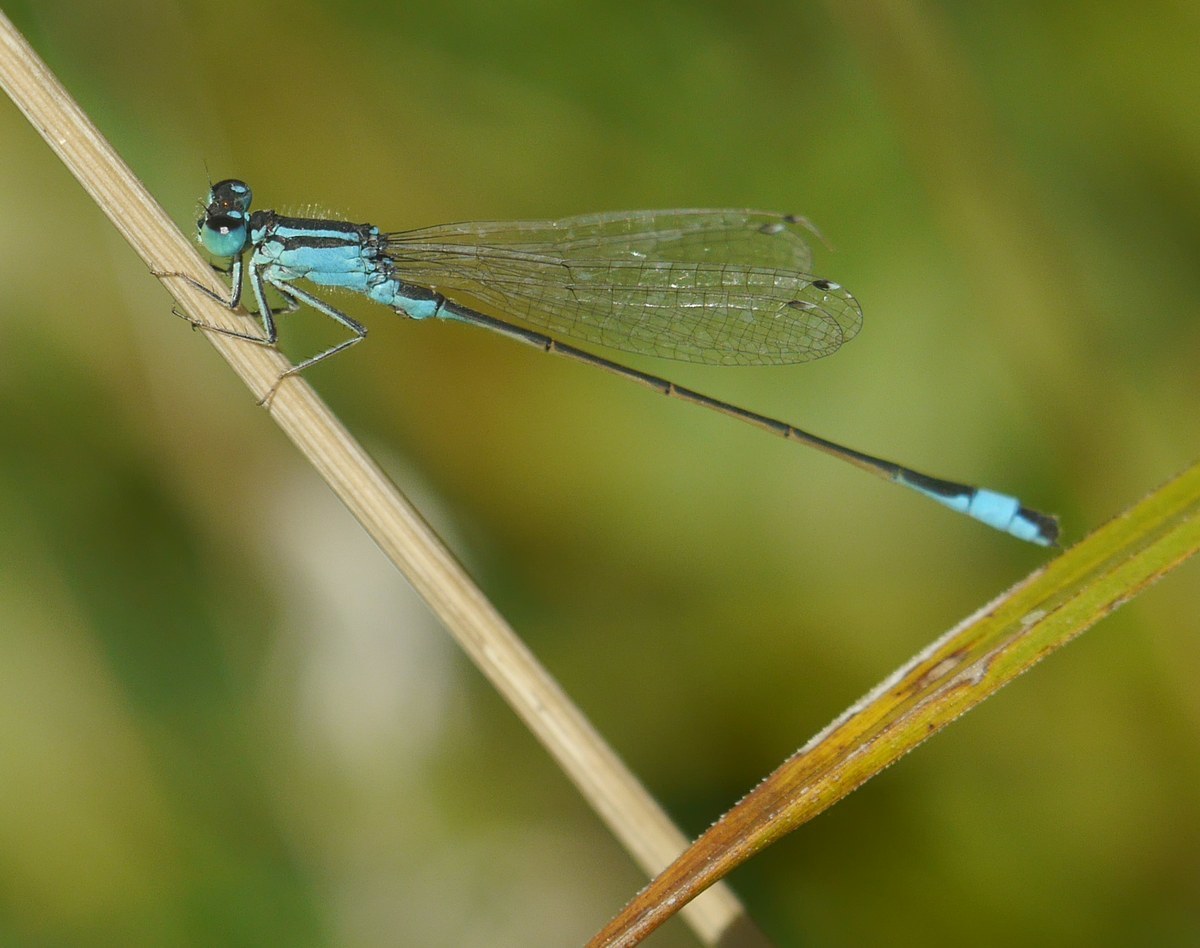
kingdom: Animalia
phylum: Arthropoda
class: Insecta
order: Odonata
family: Coenagrionidae
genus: Ischnura
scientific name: Ischnura elegans
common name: Blue-tailed damselfly
